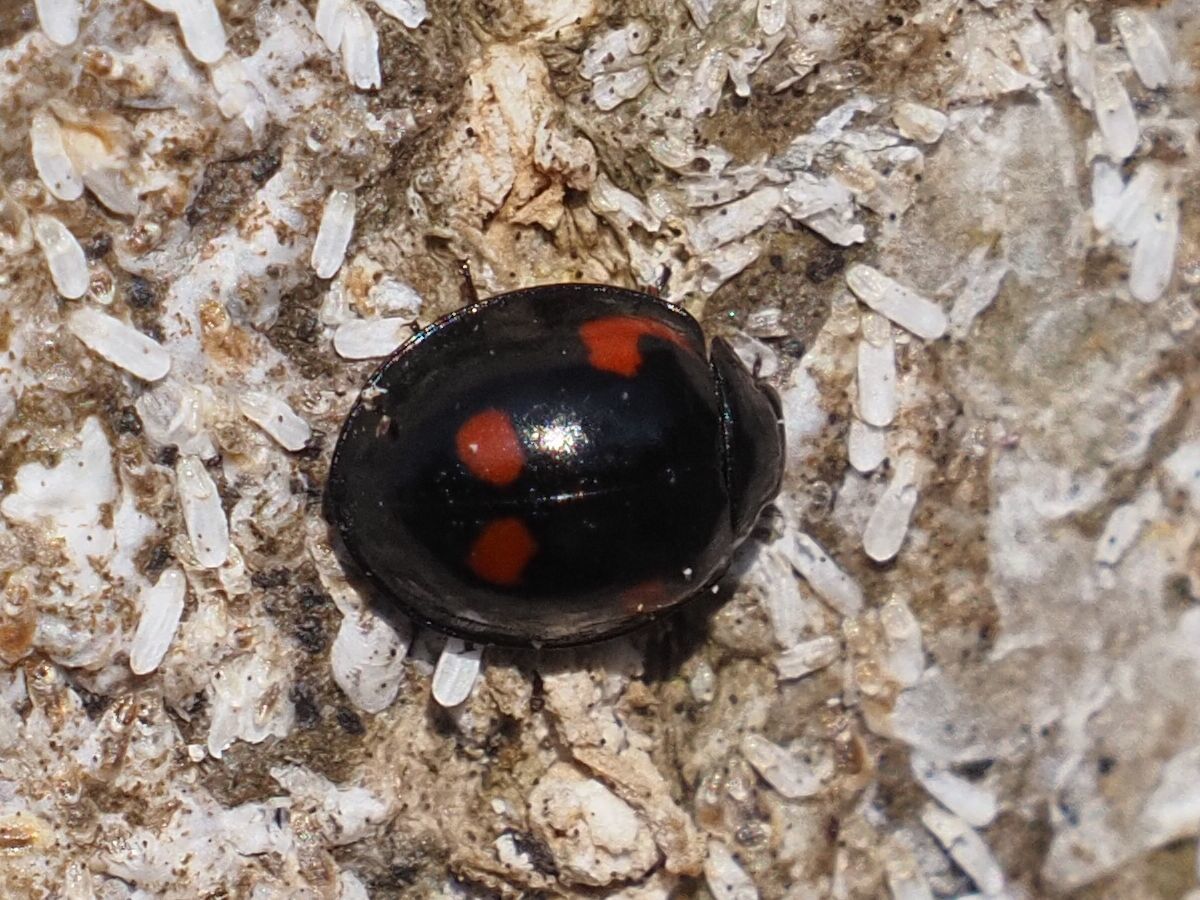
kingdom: Animalia
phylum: Arthropoda
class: Insecta
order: Coleoptera
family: Coccinellidae
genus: Brumus
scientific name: Brumus quadripustulatus
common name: Ladybird beetle
